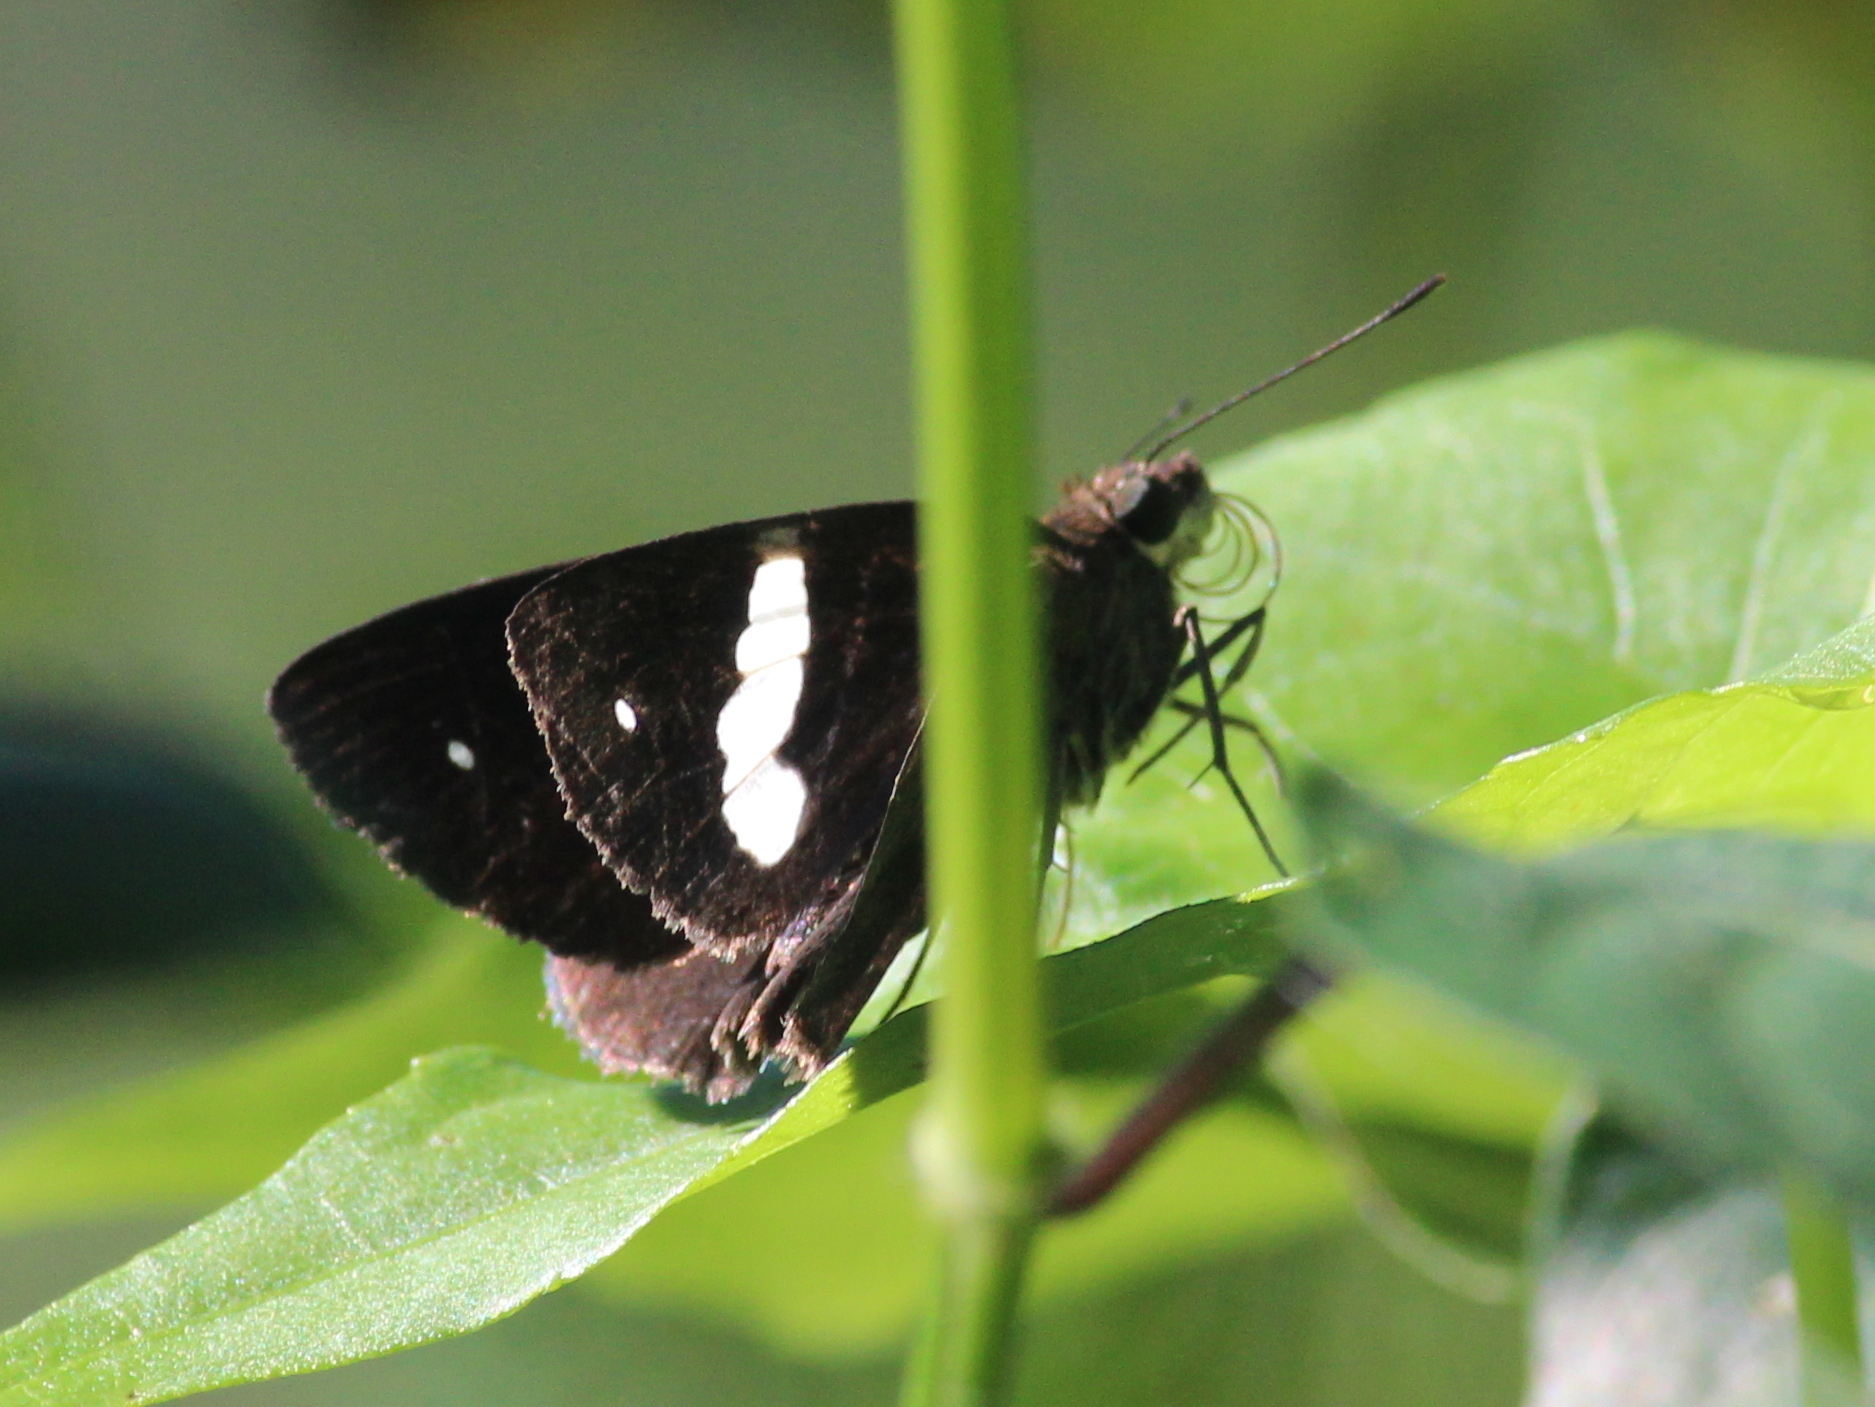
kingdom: Animalia
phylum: Arthropoda
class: Insecta
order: Lepidoptera
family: Hesperiidae
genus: Notocrypta
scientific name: Notocrypta paralysos
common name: Common banded demon
